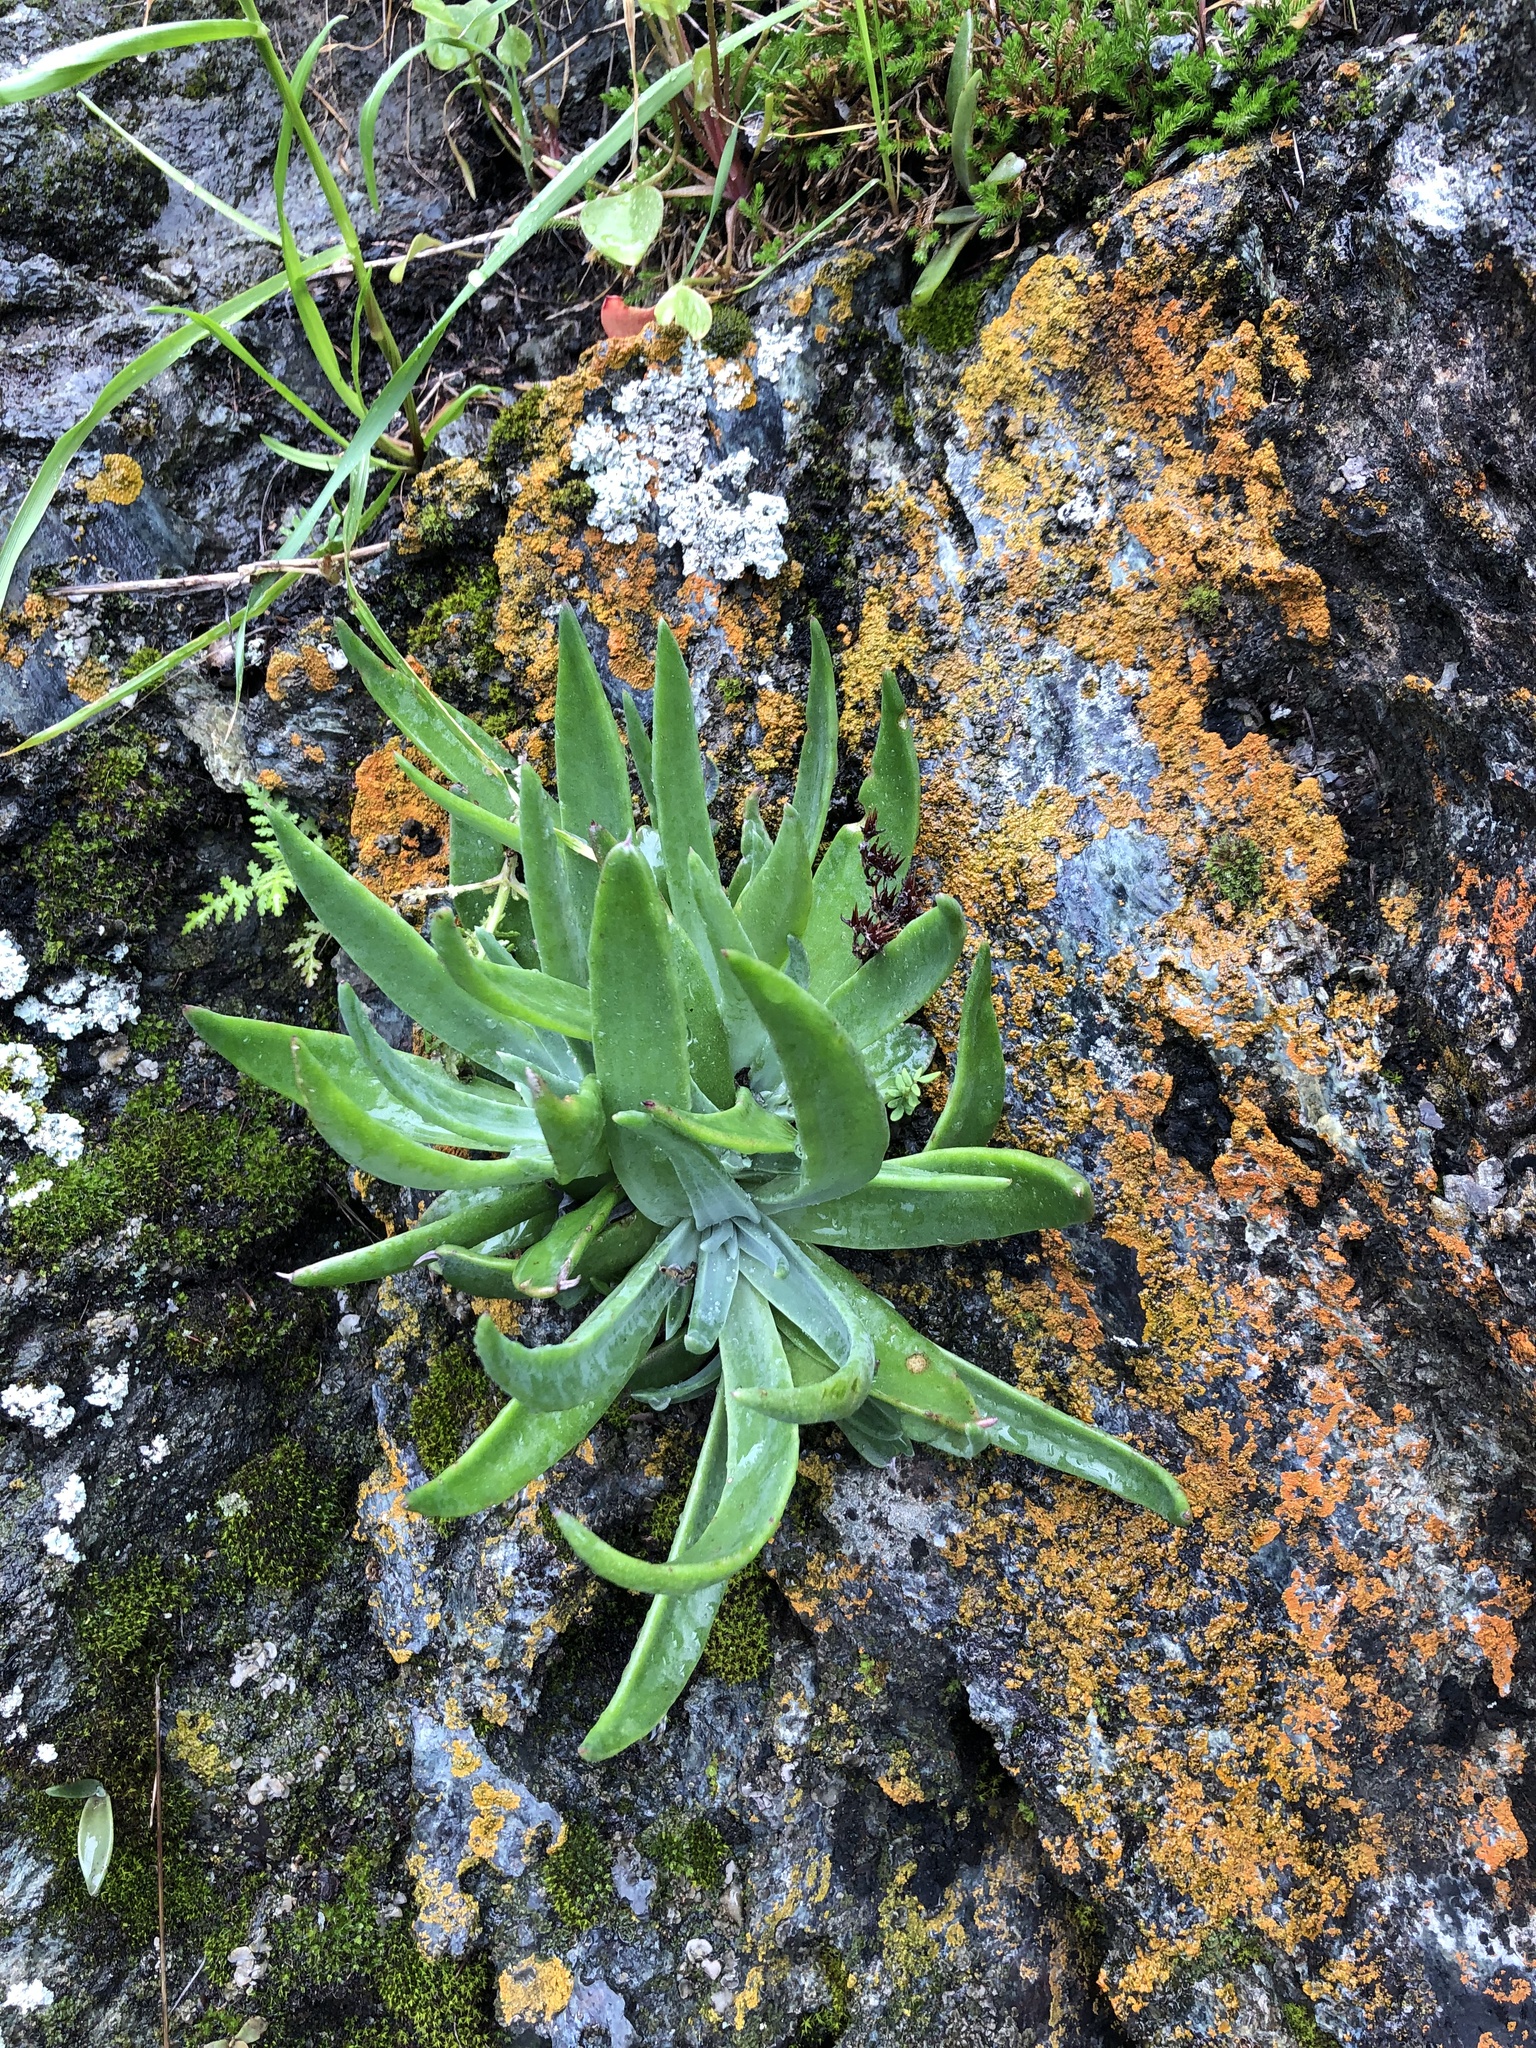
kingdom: Plantae
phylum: Tracheophyta
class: Magnoliopsida
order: Saxifragales
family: Crassulaceae
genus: Dudleya
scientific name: Dudleya lanceolata
